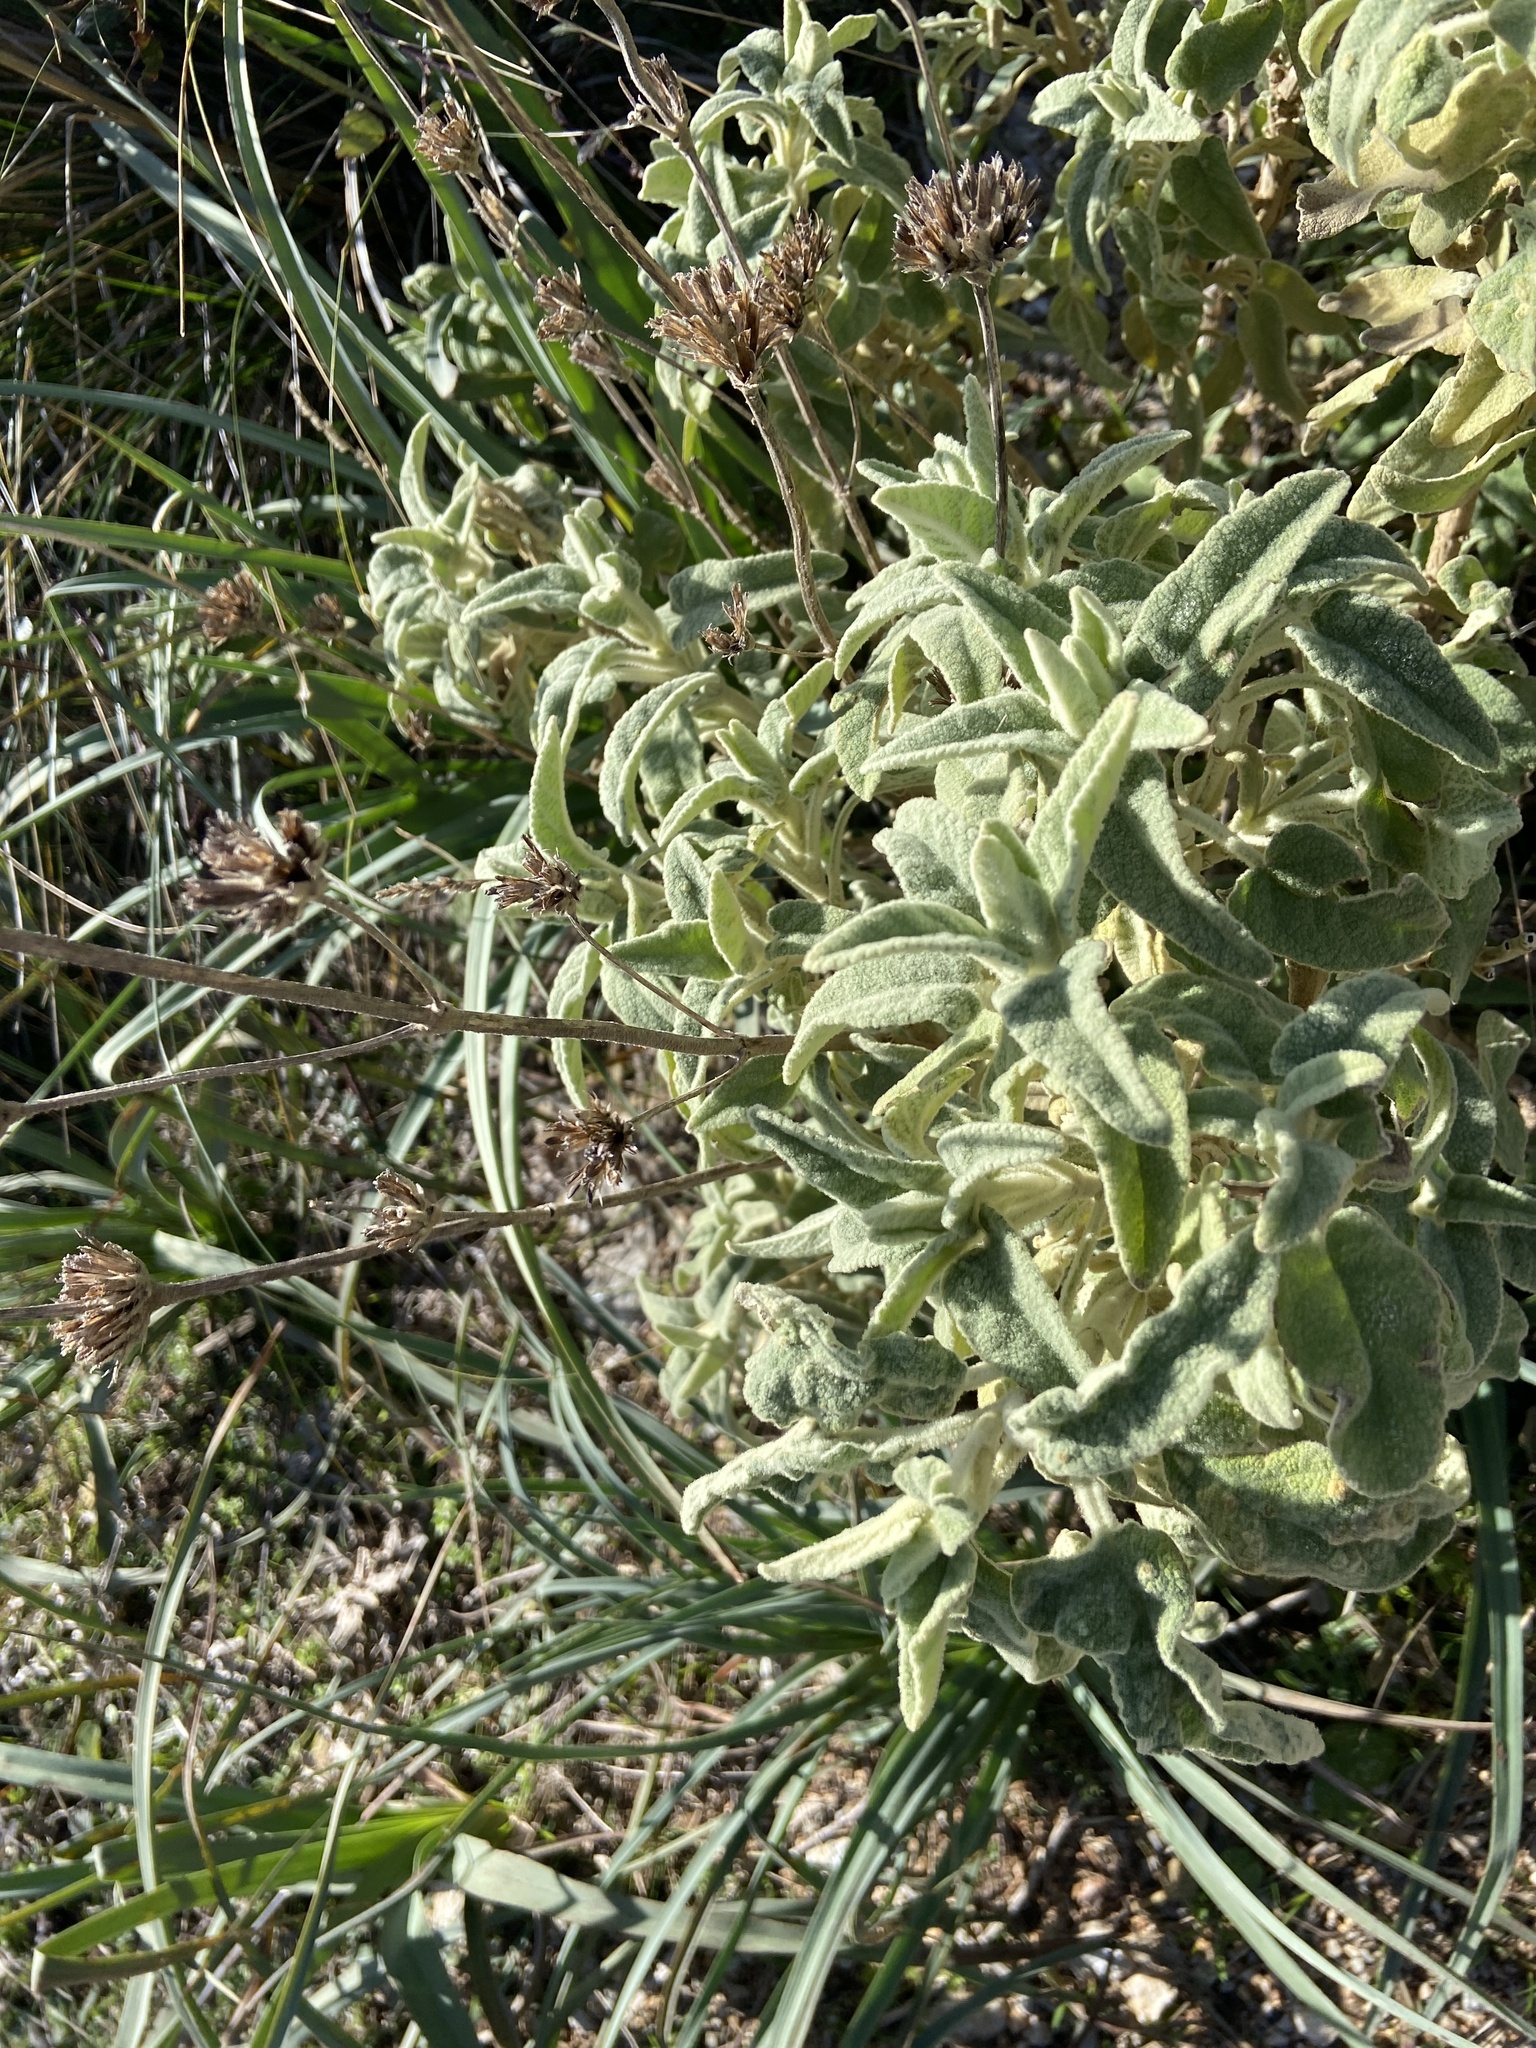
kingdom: Plantae
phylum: Tracheophyta
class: Magnoliopsida
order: Lamiales
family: Lamiaceae
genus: Phlomis
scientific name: Phlomis italica
